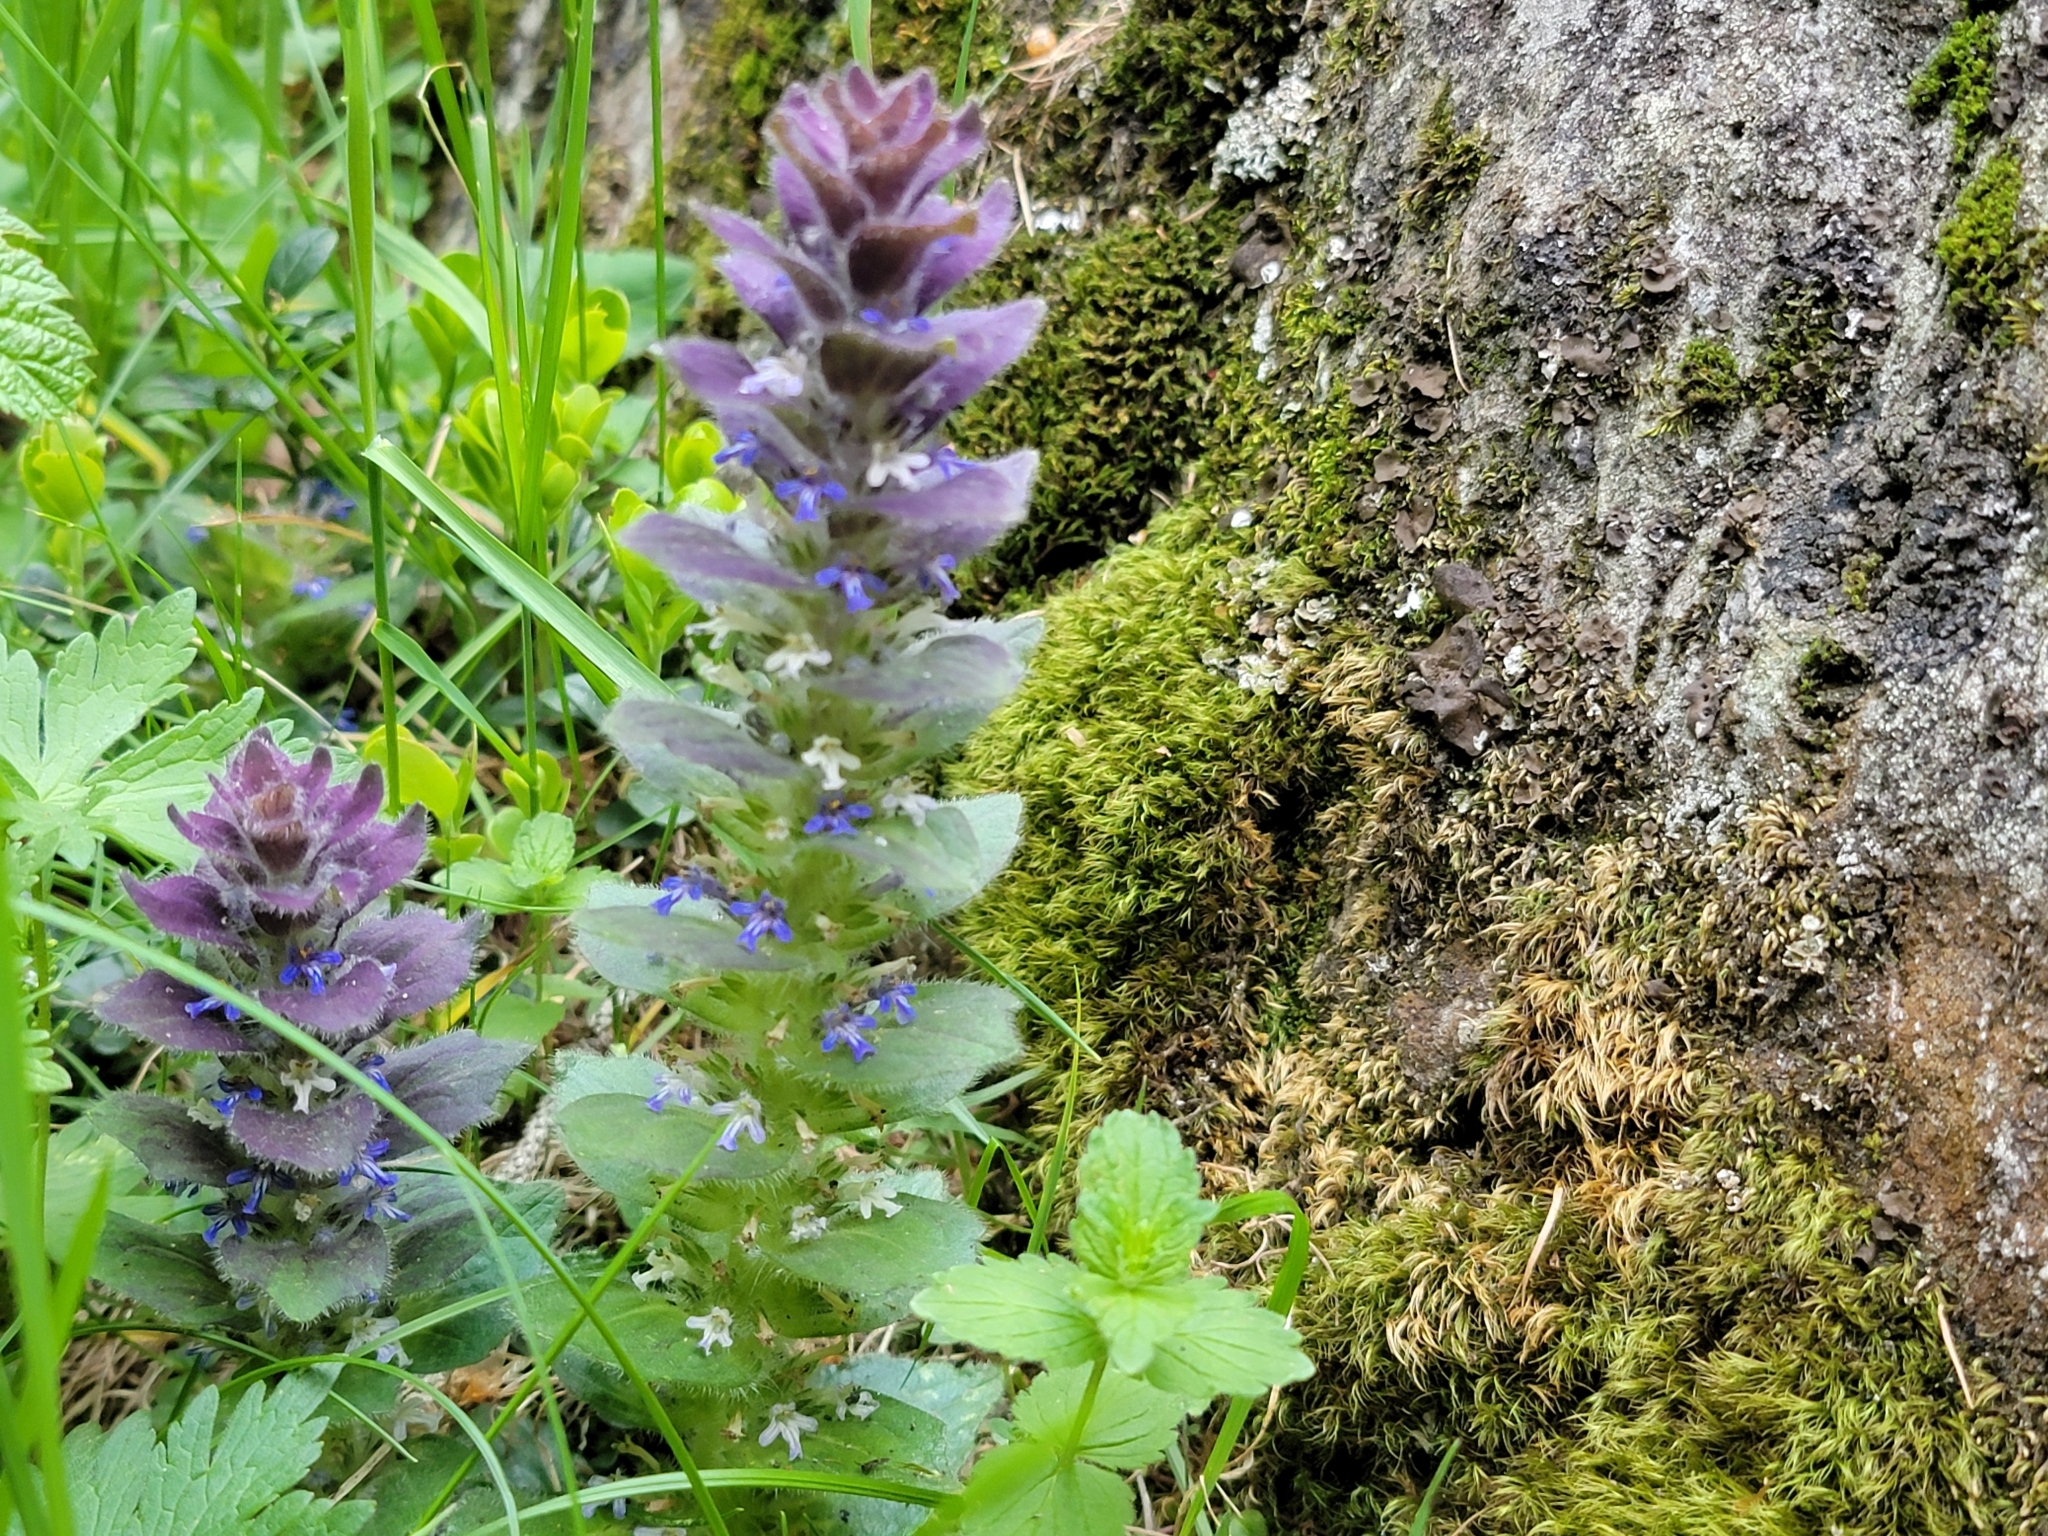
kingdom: Plantae
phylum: Tracheophyta
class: Magnoliopsida
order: Lamiales
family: Lamiaceae
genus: Ajuga
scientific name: Ajuga pyramidalis
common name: Pyramid bugle
